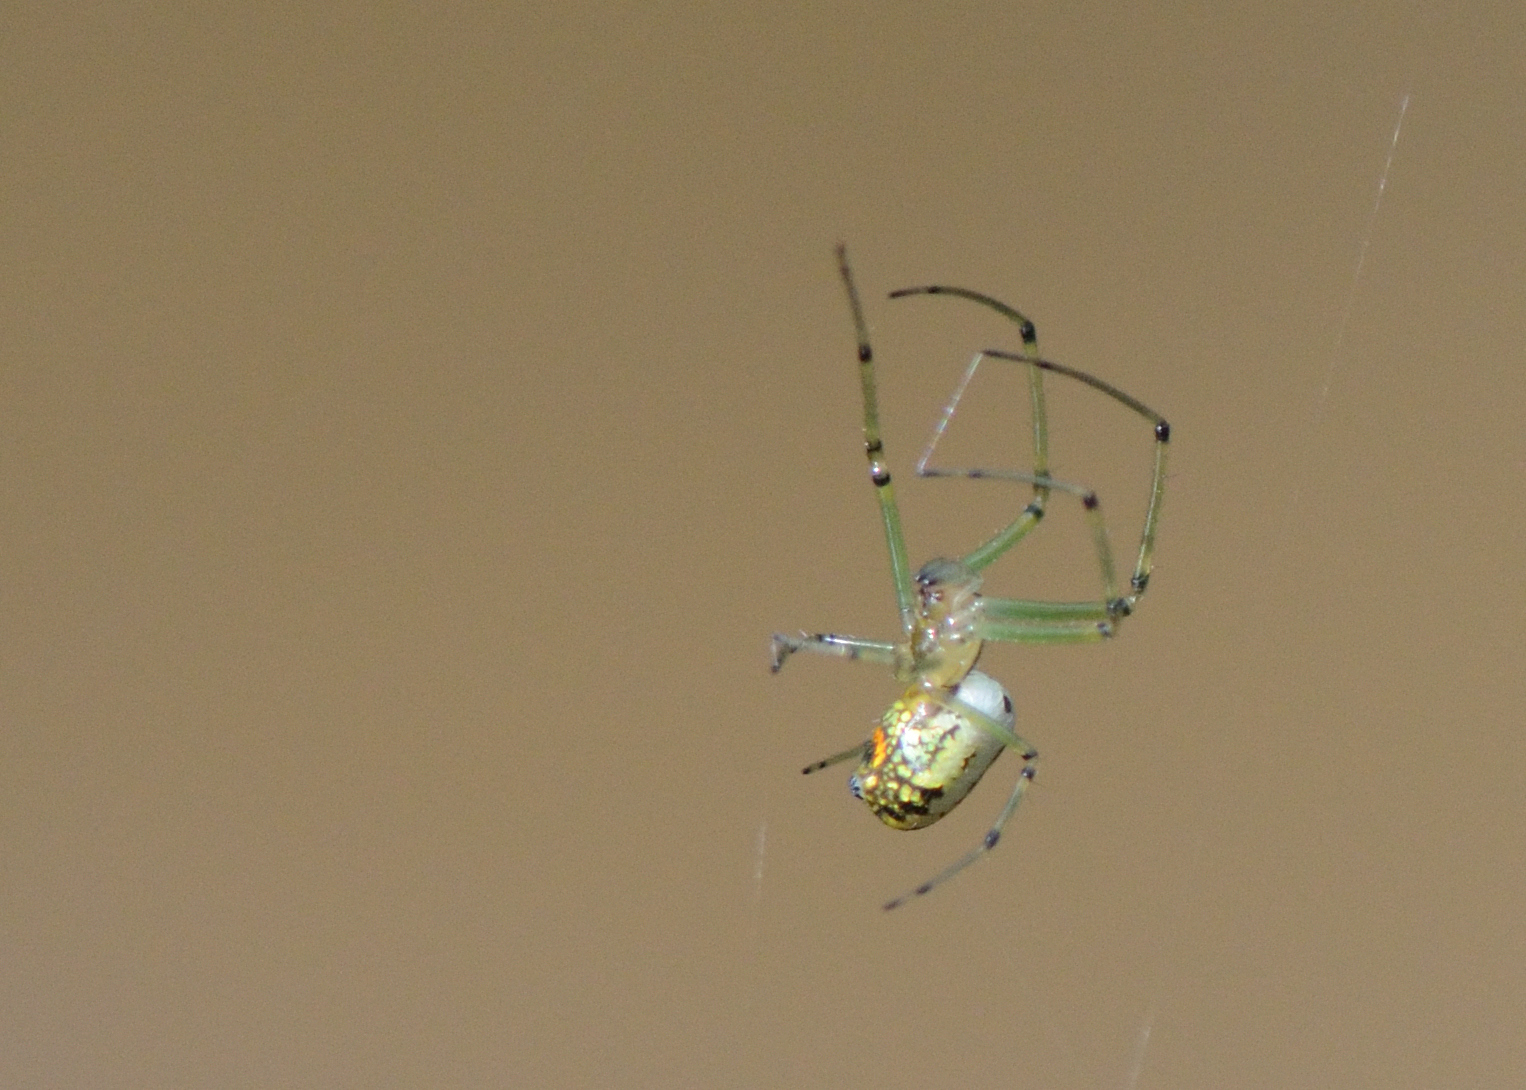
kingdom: Animalia
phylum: Arthropoda
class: Arachnida
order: Araneae
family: Tetragnathidae
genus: Leucauge
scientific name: Leucauge venusta
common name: Longjawed orb weavers
